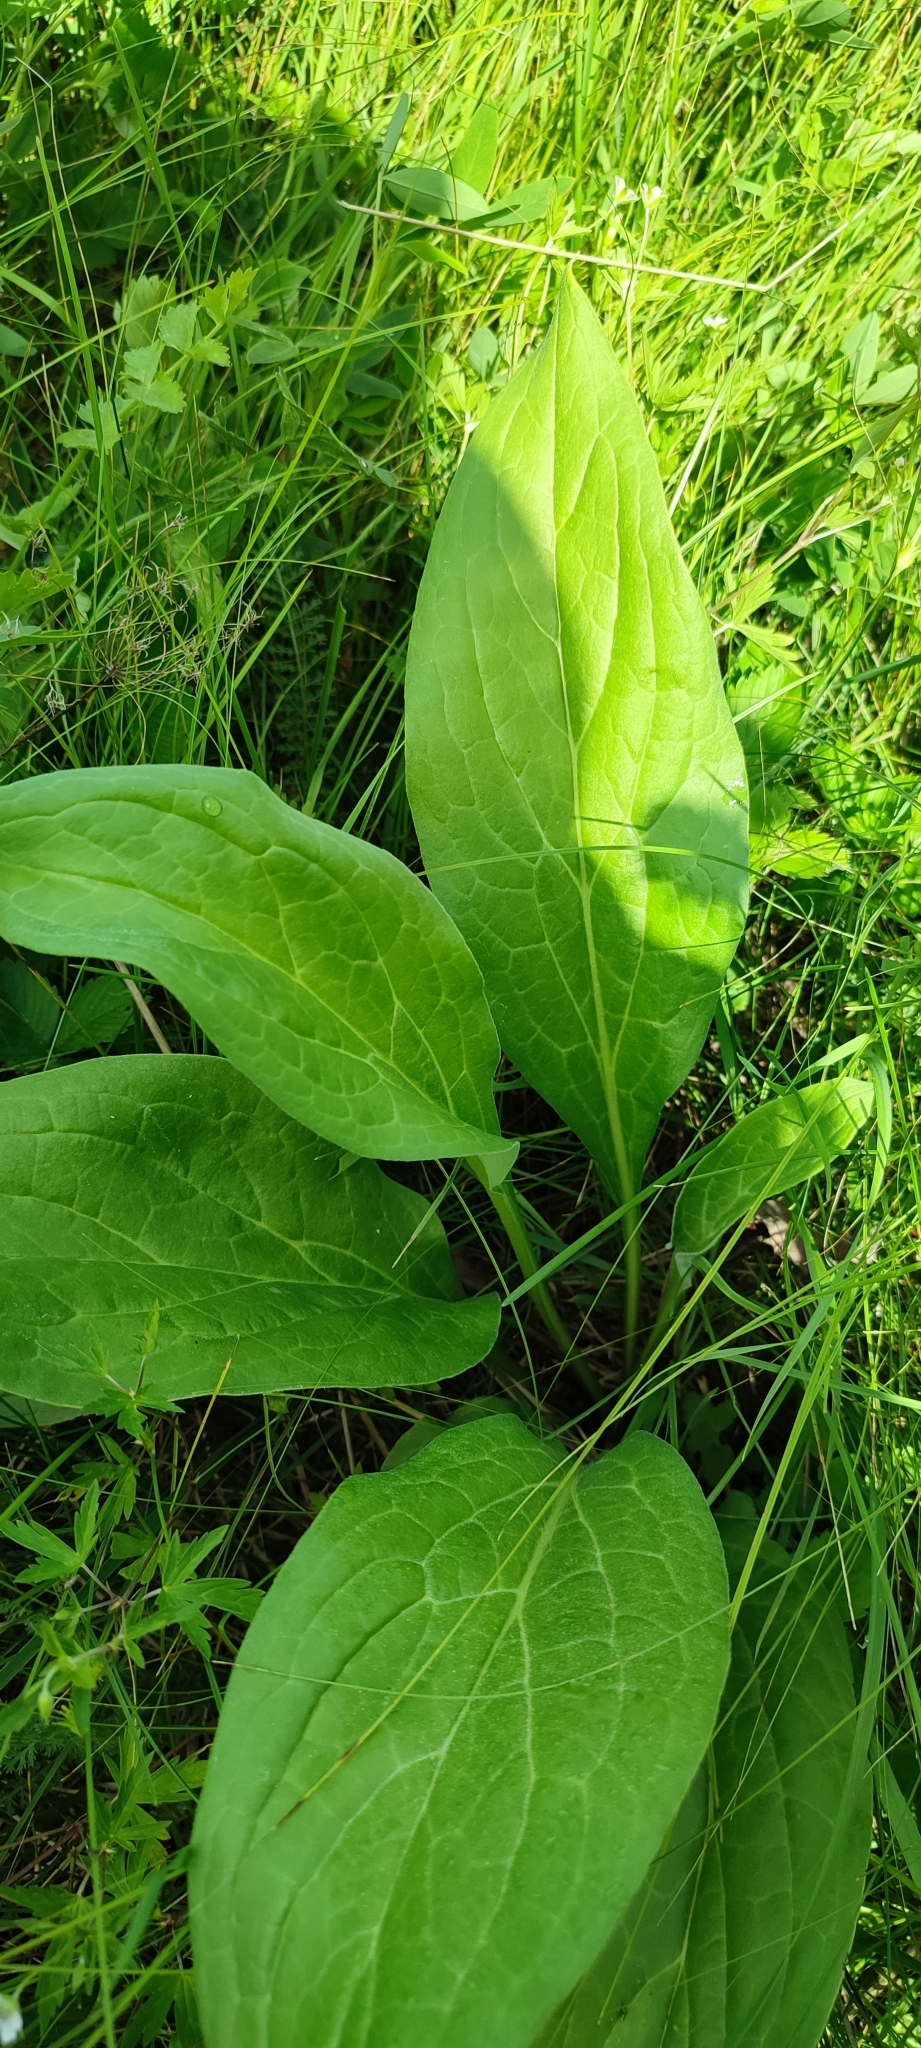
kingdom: Plantae
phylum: Tracheophyta
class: Magnoliopsida
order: Boraginales
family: Boraginaceae
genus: Cynoglossum
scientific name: Cynoglossum officinale
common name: Hound's-tongue
